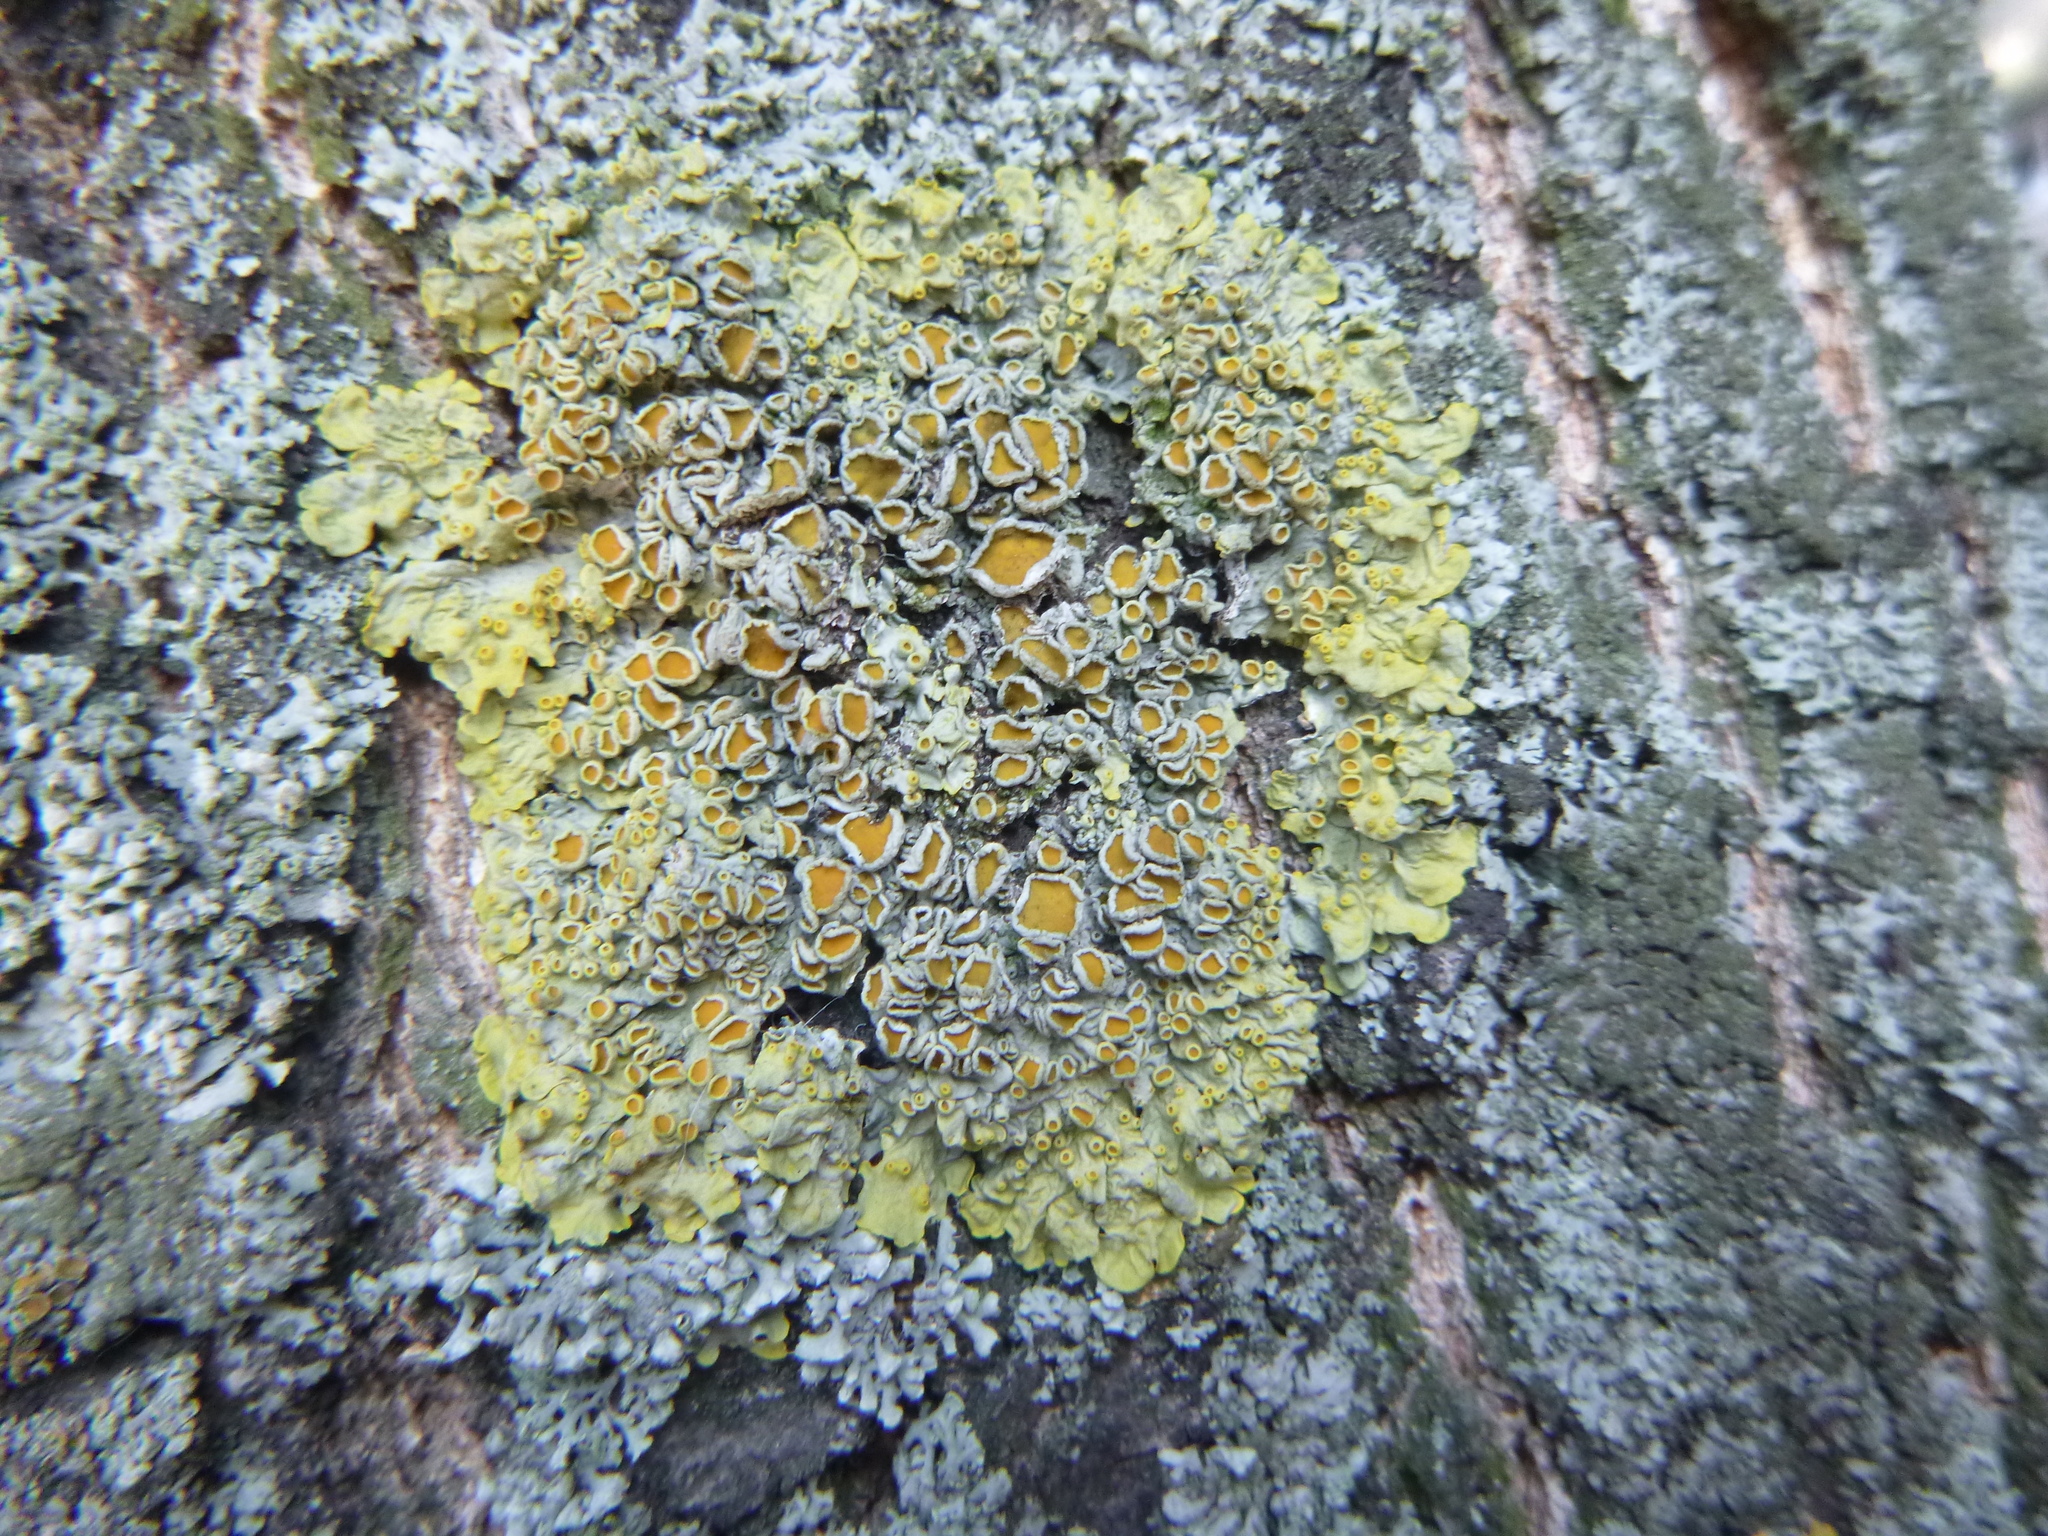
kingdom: Fungi
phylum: Ascomycota
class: Lecanoromycetes
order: Teloschistales
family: Teloschistaceae
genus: Xanthoria
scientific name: Xanthoria parietina
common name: Common orange lichen
